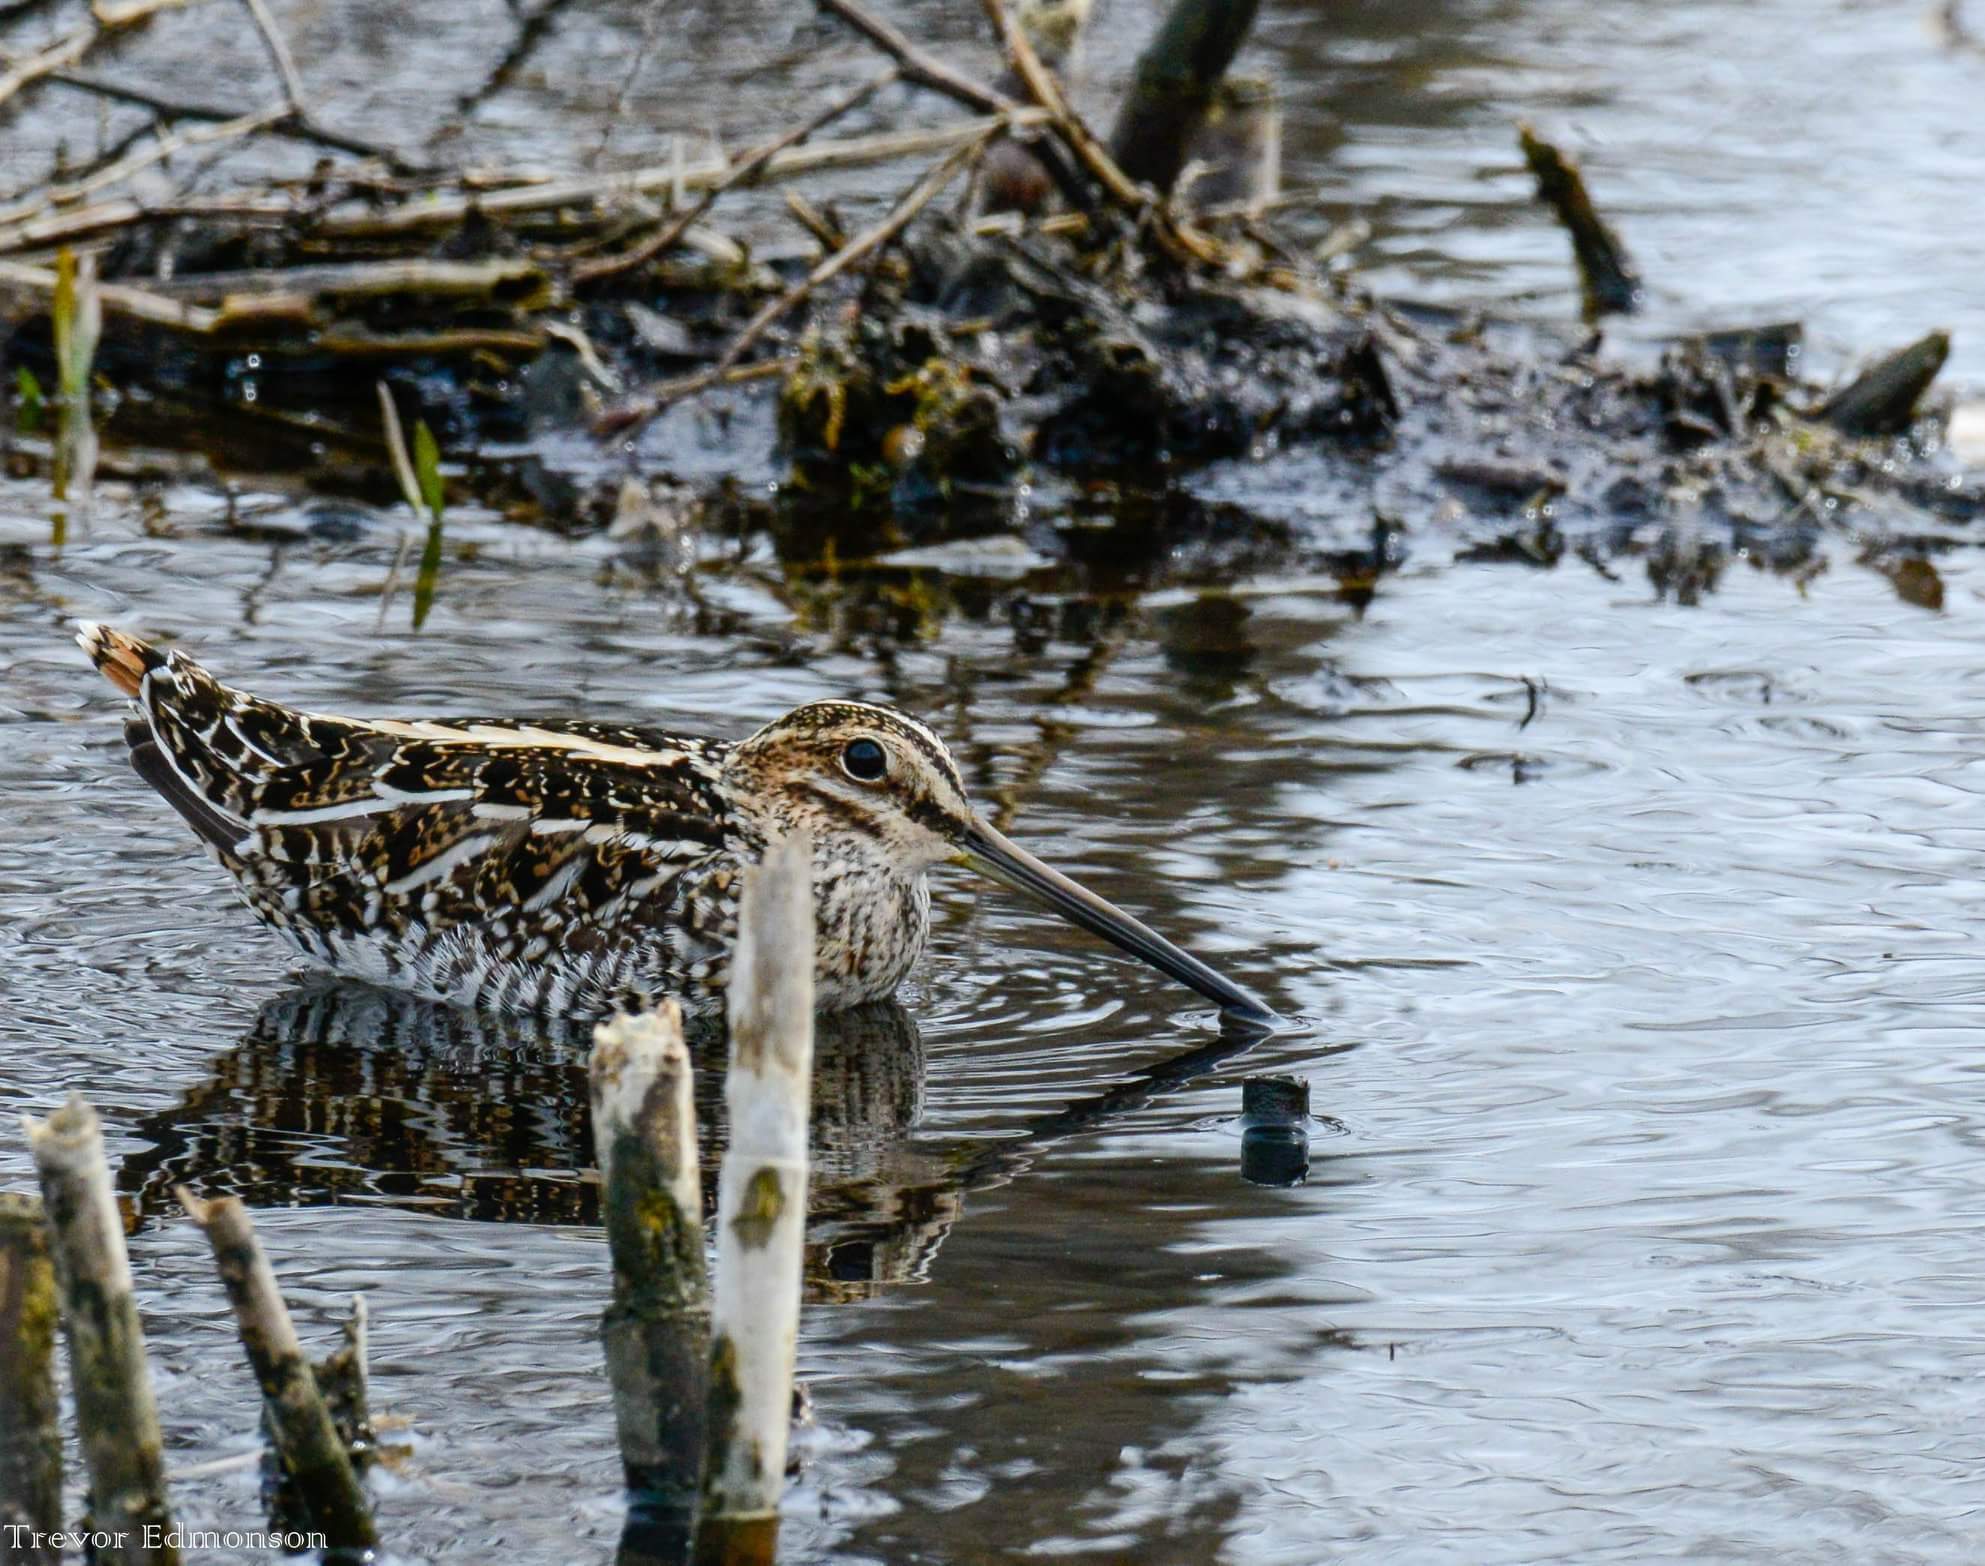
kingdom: Animalia
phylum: Chordata
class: Aves
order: Charadriiformes
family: Scolopacidae
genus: Gallinago
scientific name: Gallinago delicata
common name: Wilson's snipe
